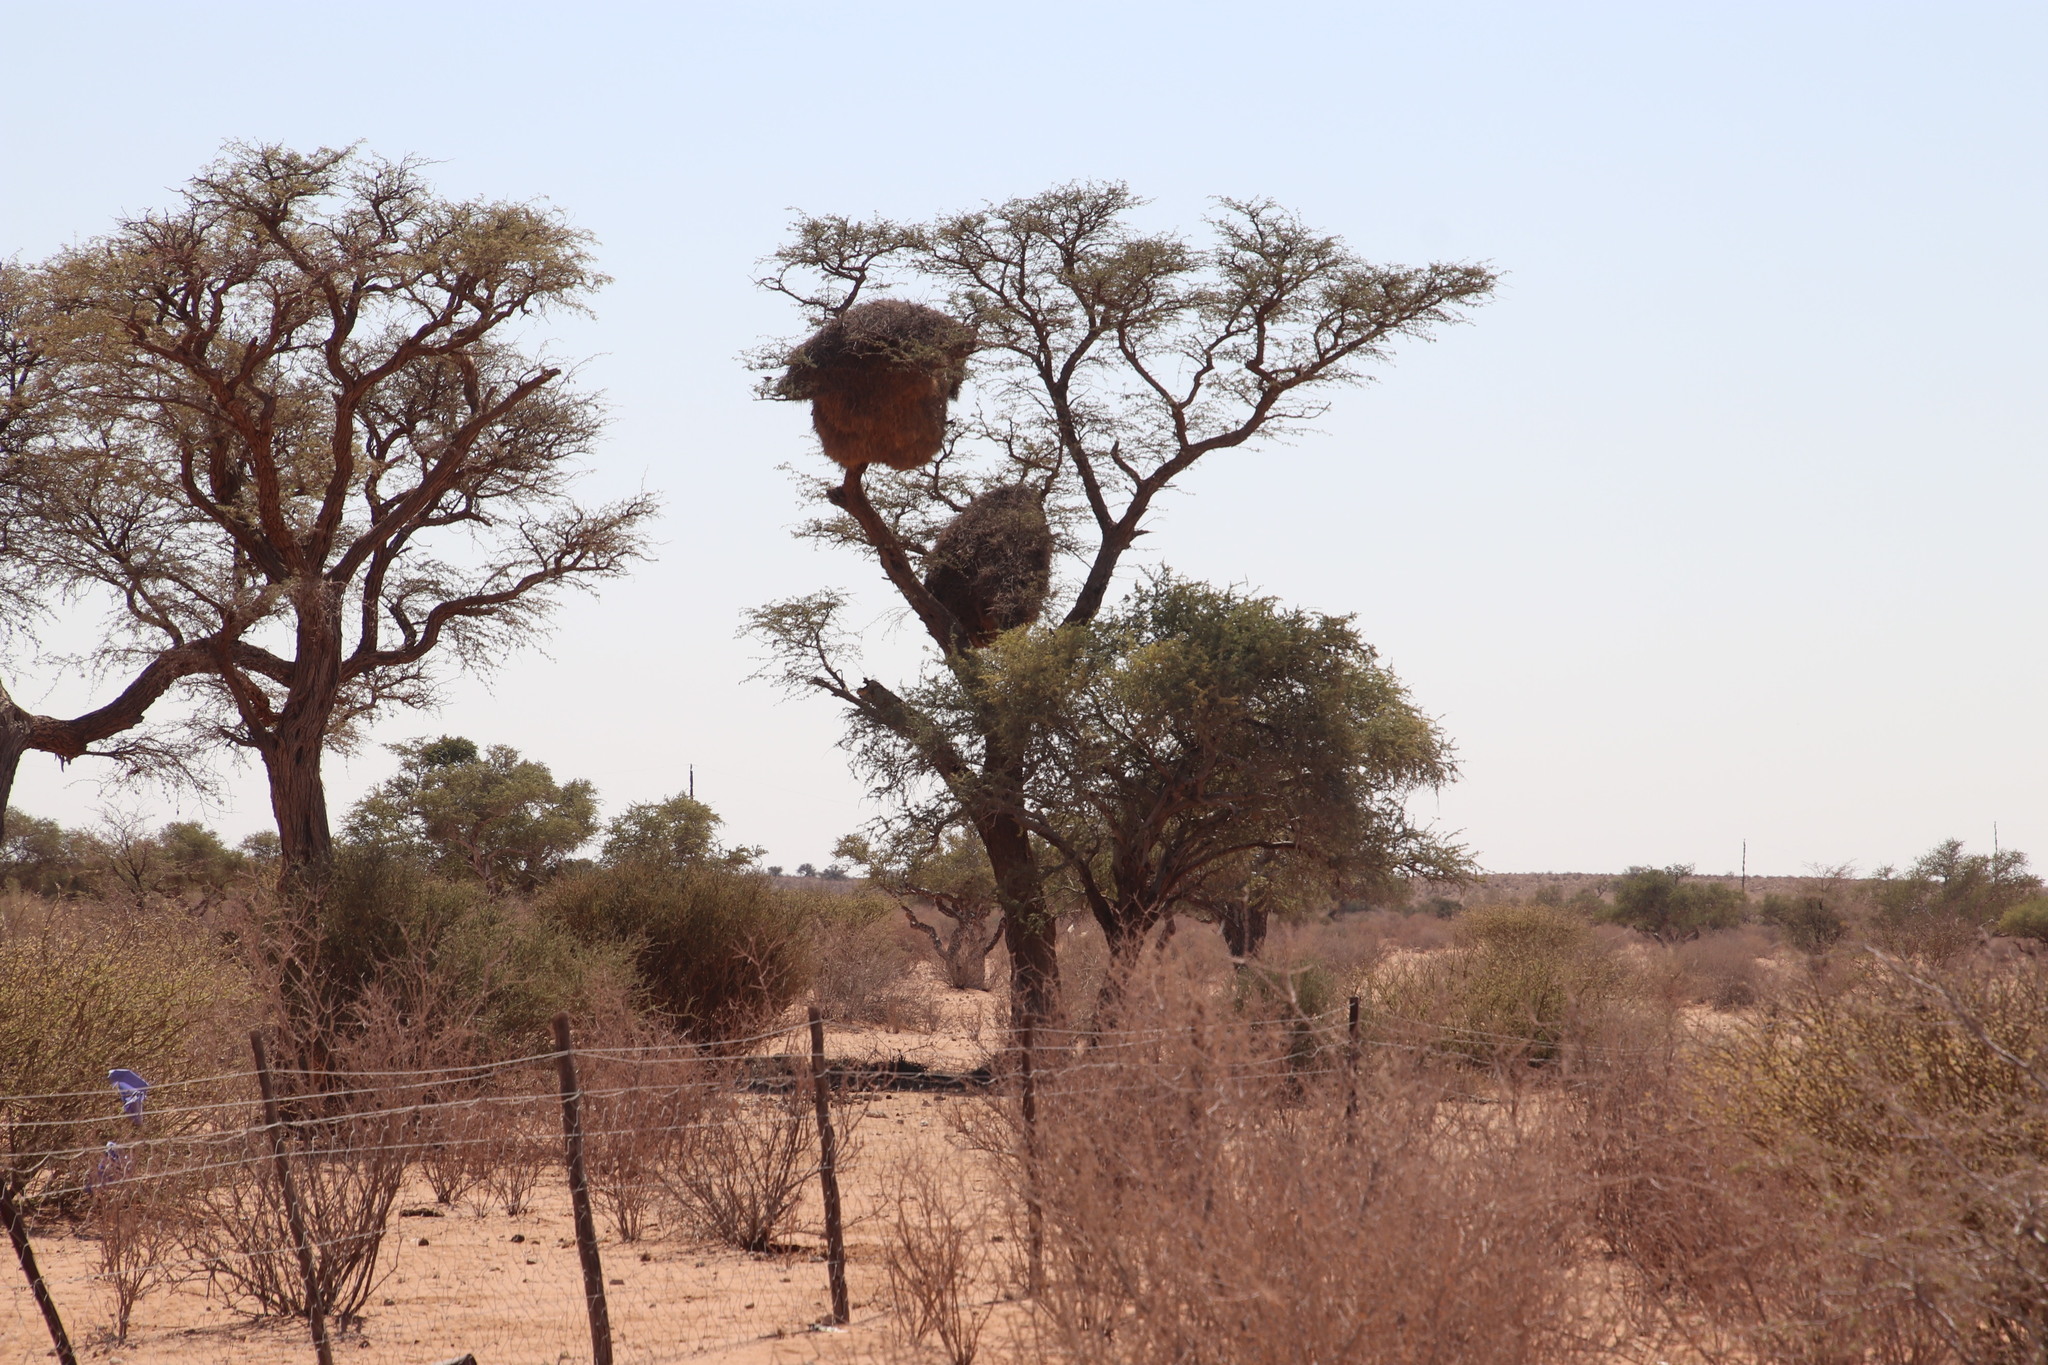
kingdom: Animalia
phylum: Chordata
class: Aves
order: Passeriformes
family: Passeridae
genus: Philetairus
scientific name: Philetairus socius
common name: Sociable weaver
